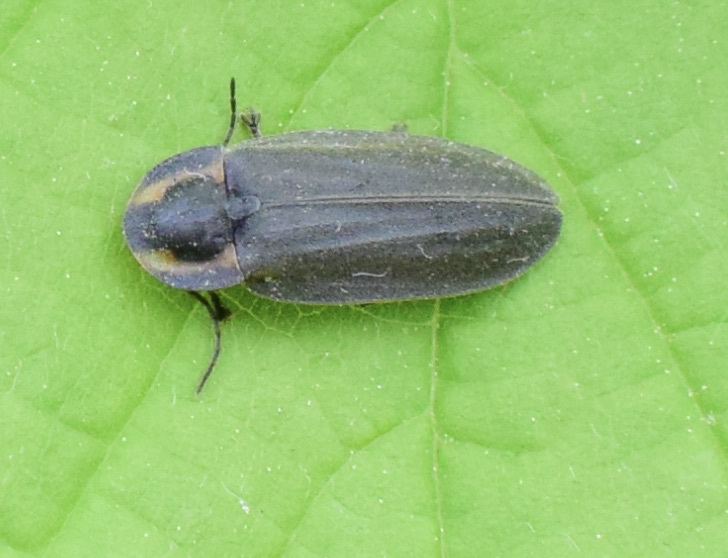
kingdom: Animalia
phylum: Arthropoda
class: Insecta
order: Coleoptera
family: Lampyridae
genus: Photinus
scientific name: Photinus corrusca
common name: Winter firefly
